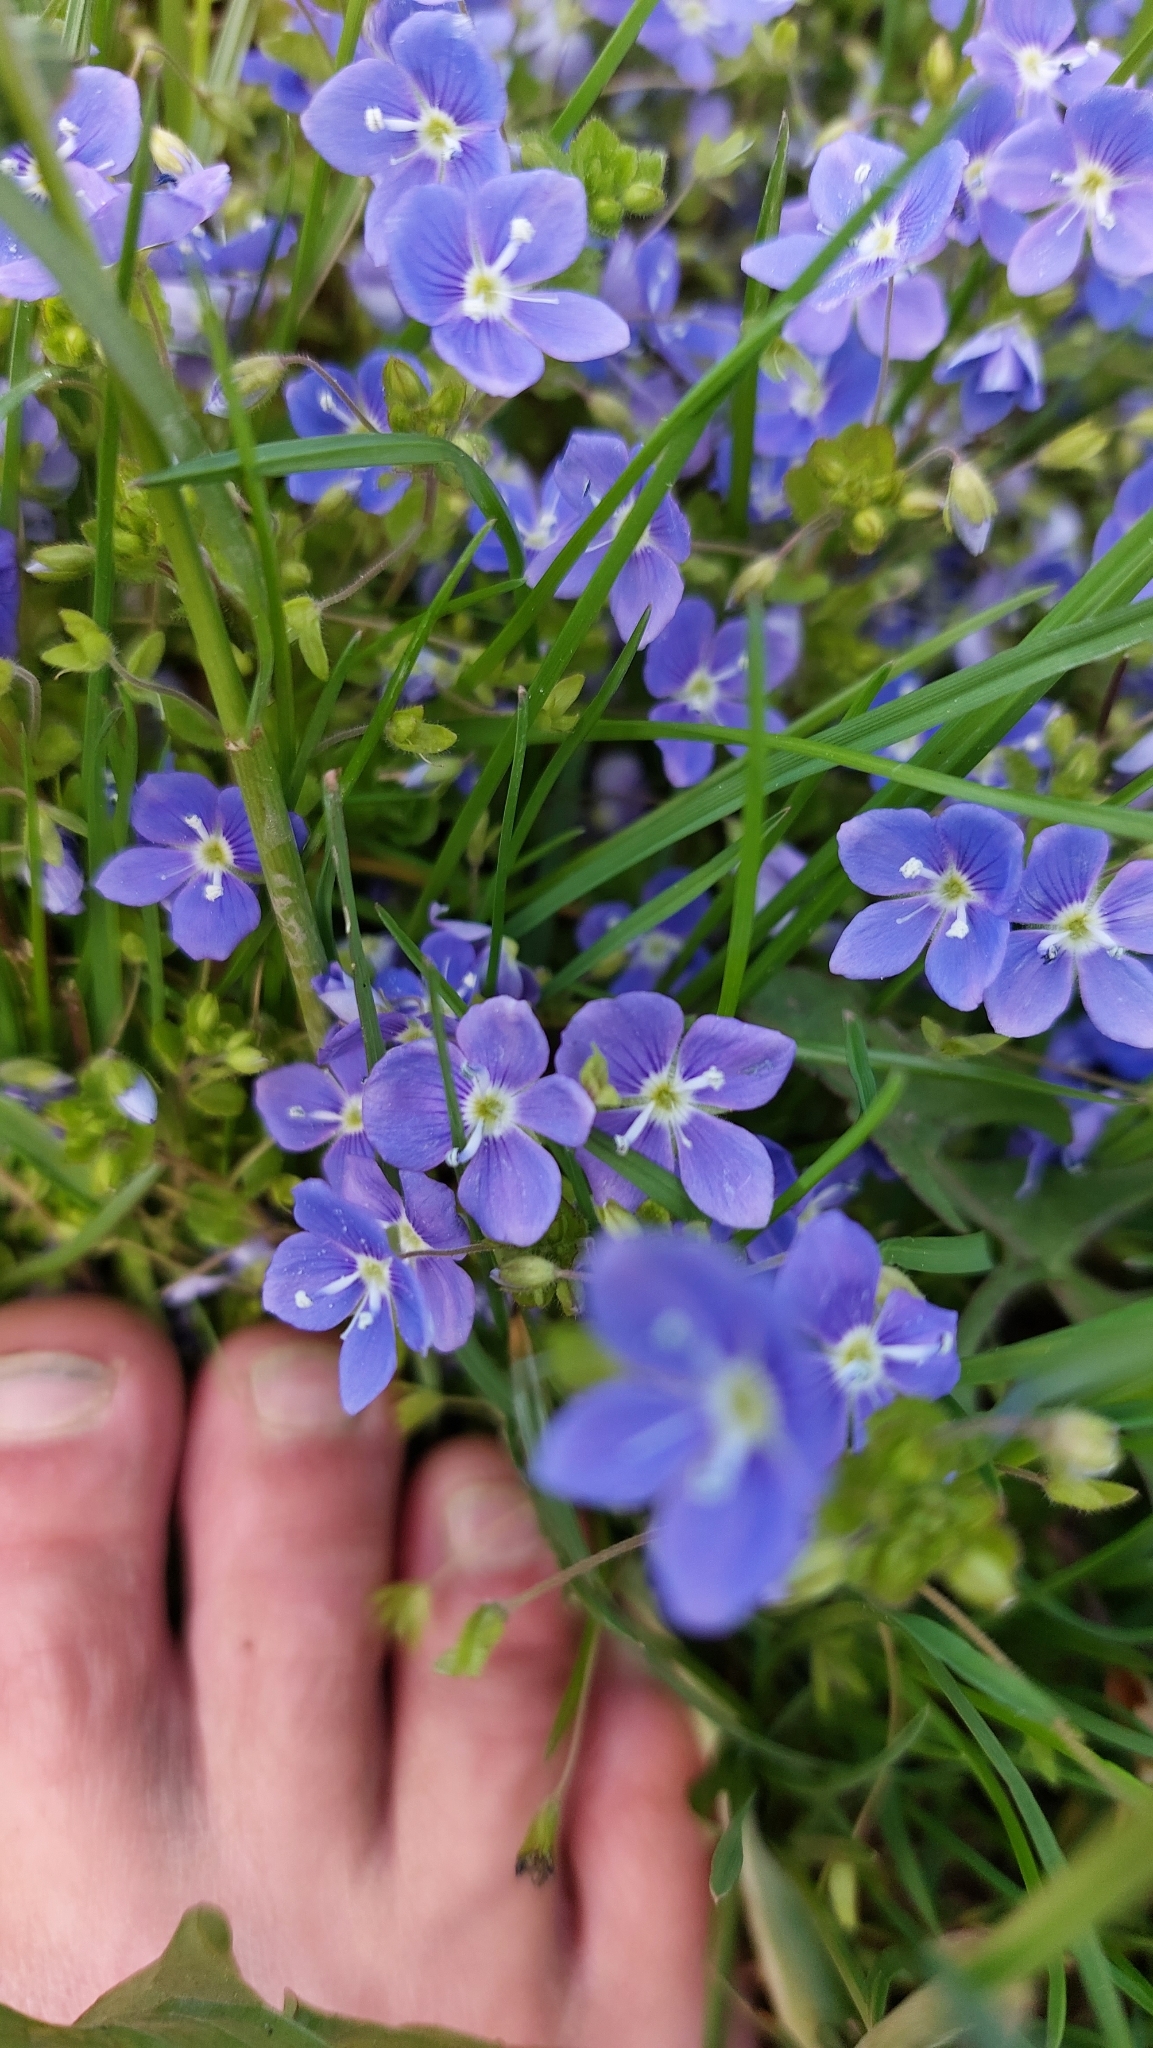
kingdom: Plantae
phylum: Tracheophyta
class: Magnoliopsida
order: Lamiales
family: Plantaginaceae
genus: Veronica
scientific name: Veronica filiformis
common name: Slender speedwell
